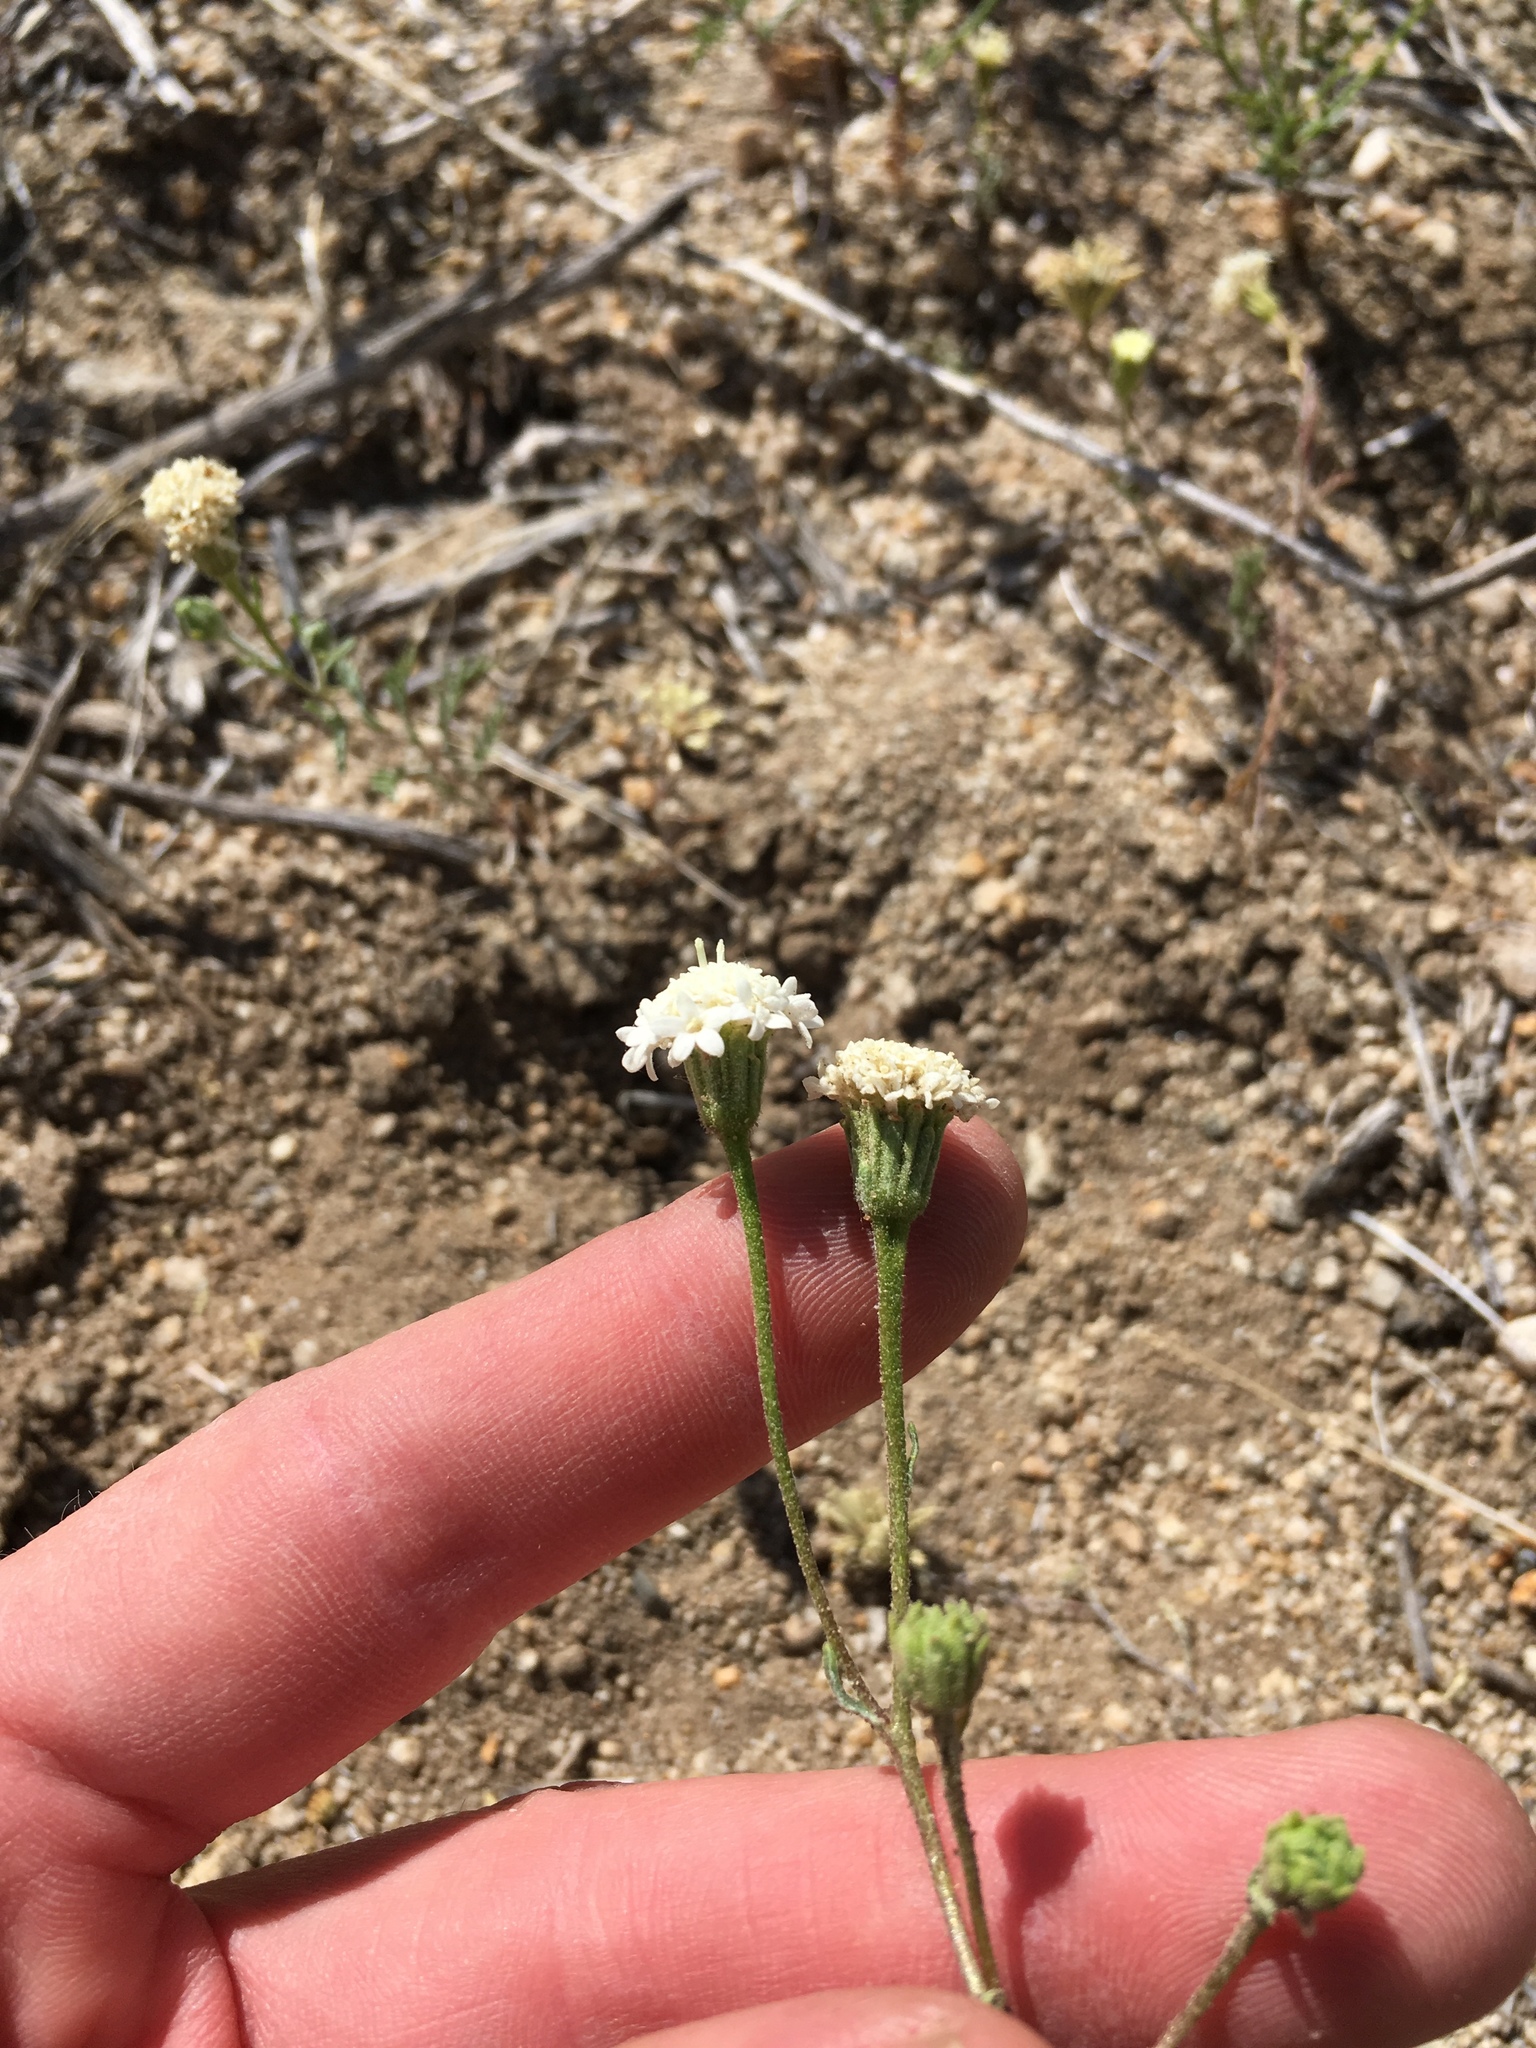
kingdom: Plantae
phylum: Tracheophyta
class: Magnoliopsida
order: Asterales
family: Asteraceae
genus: Chaenactis
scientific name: Chaenactis stevioides
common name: Desert pincushion
